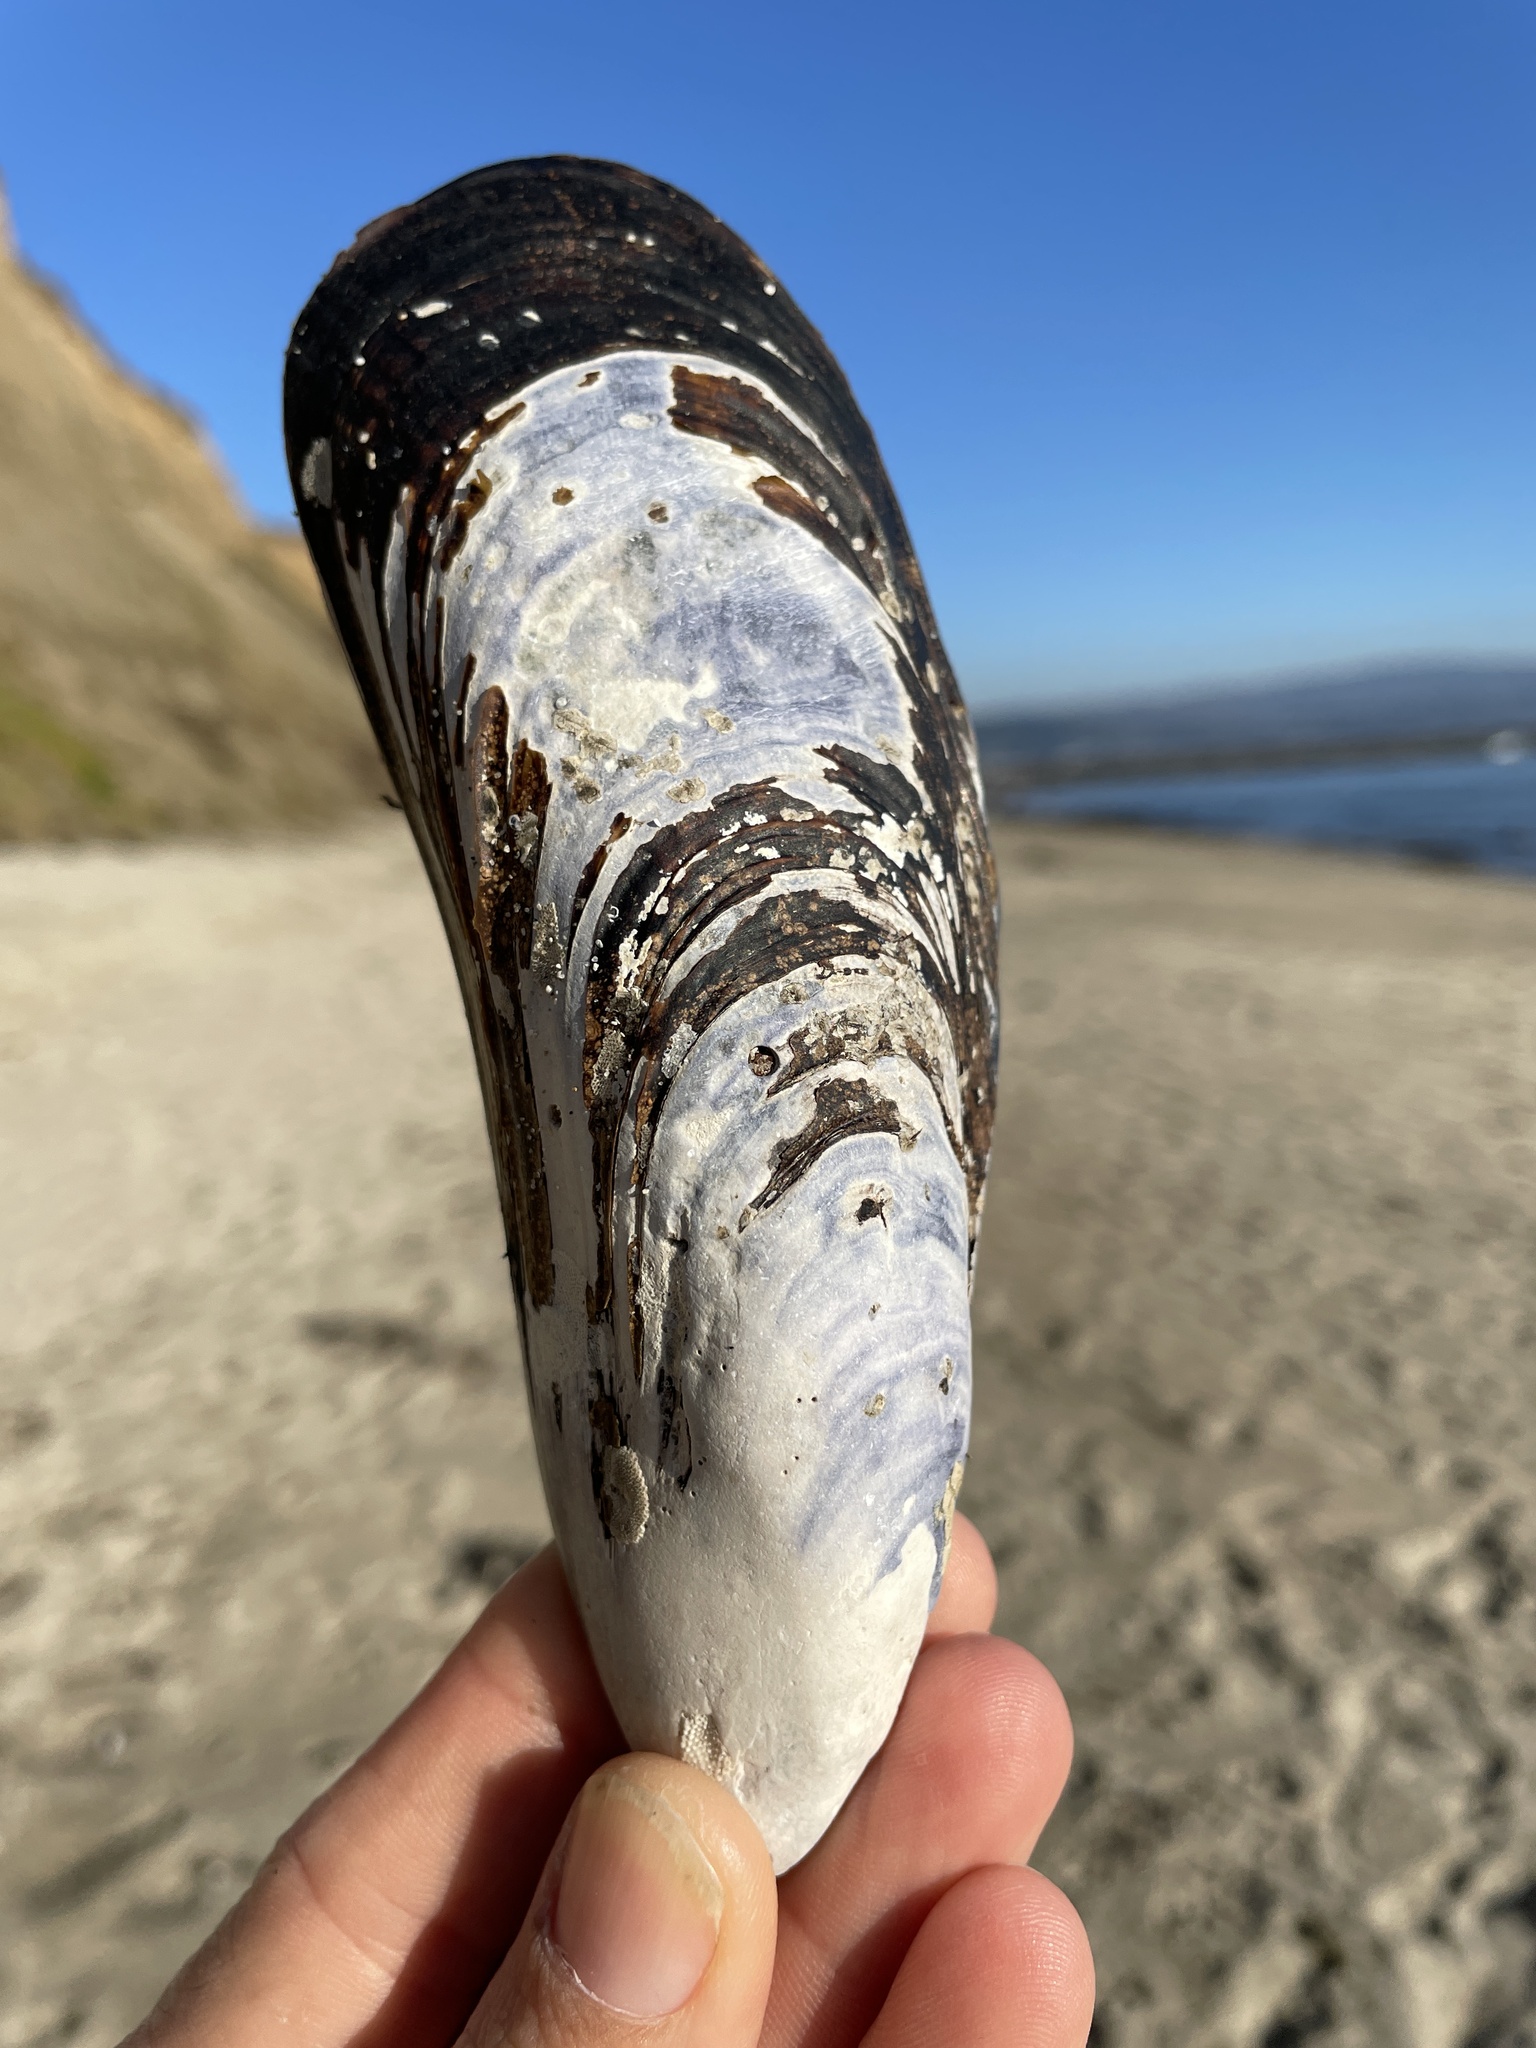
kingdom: Animalia
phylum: Mollusca
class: Bivalvia
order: Mytilida
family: Mytilidae
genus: Mytilus
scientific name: Mytilus californianus
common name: California mussel
